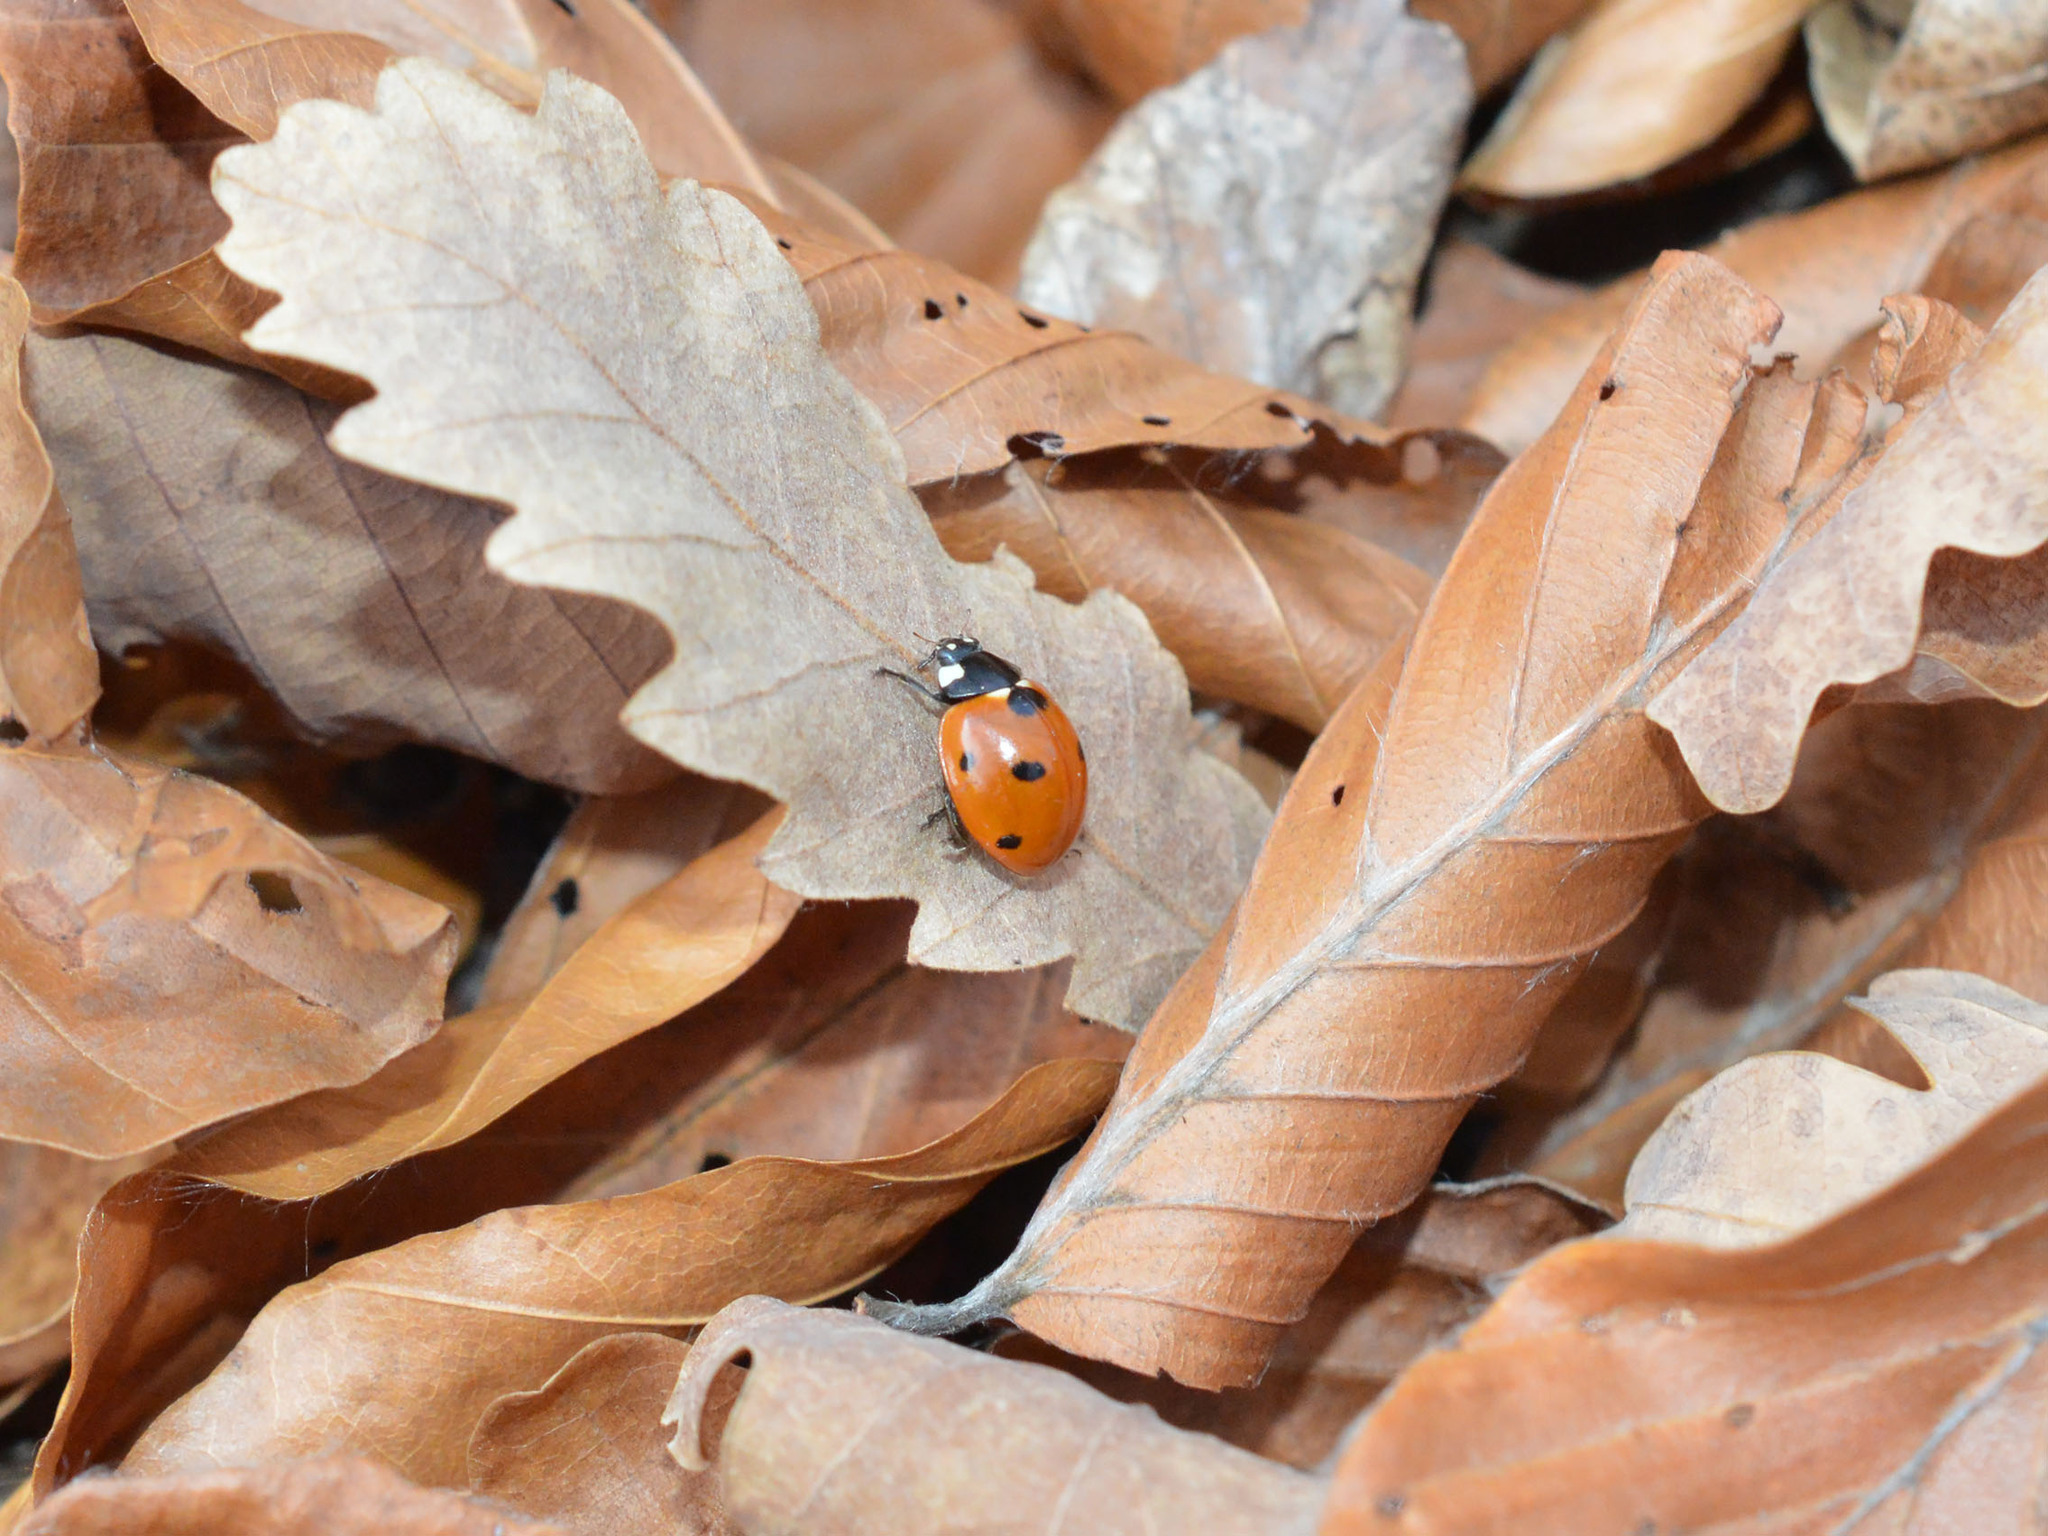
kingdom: Animalia
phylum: Arthropoda
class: Insecta
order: Coleoptera
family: Coccinellidae
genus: Coccinella
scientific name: Coccinella septempunctata
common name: Sevenspotted lady beetle
